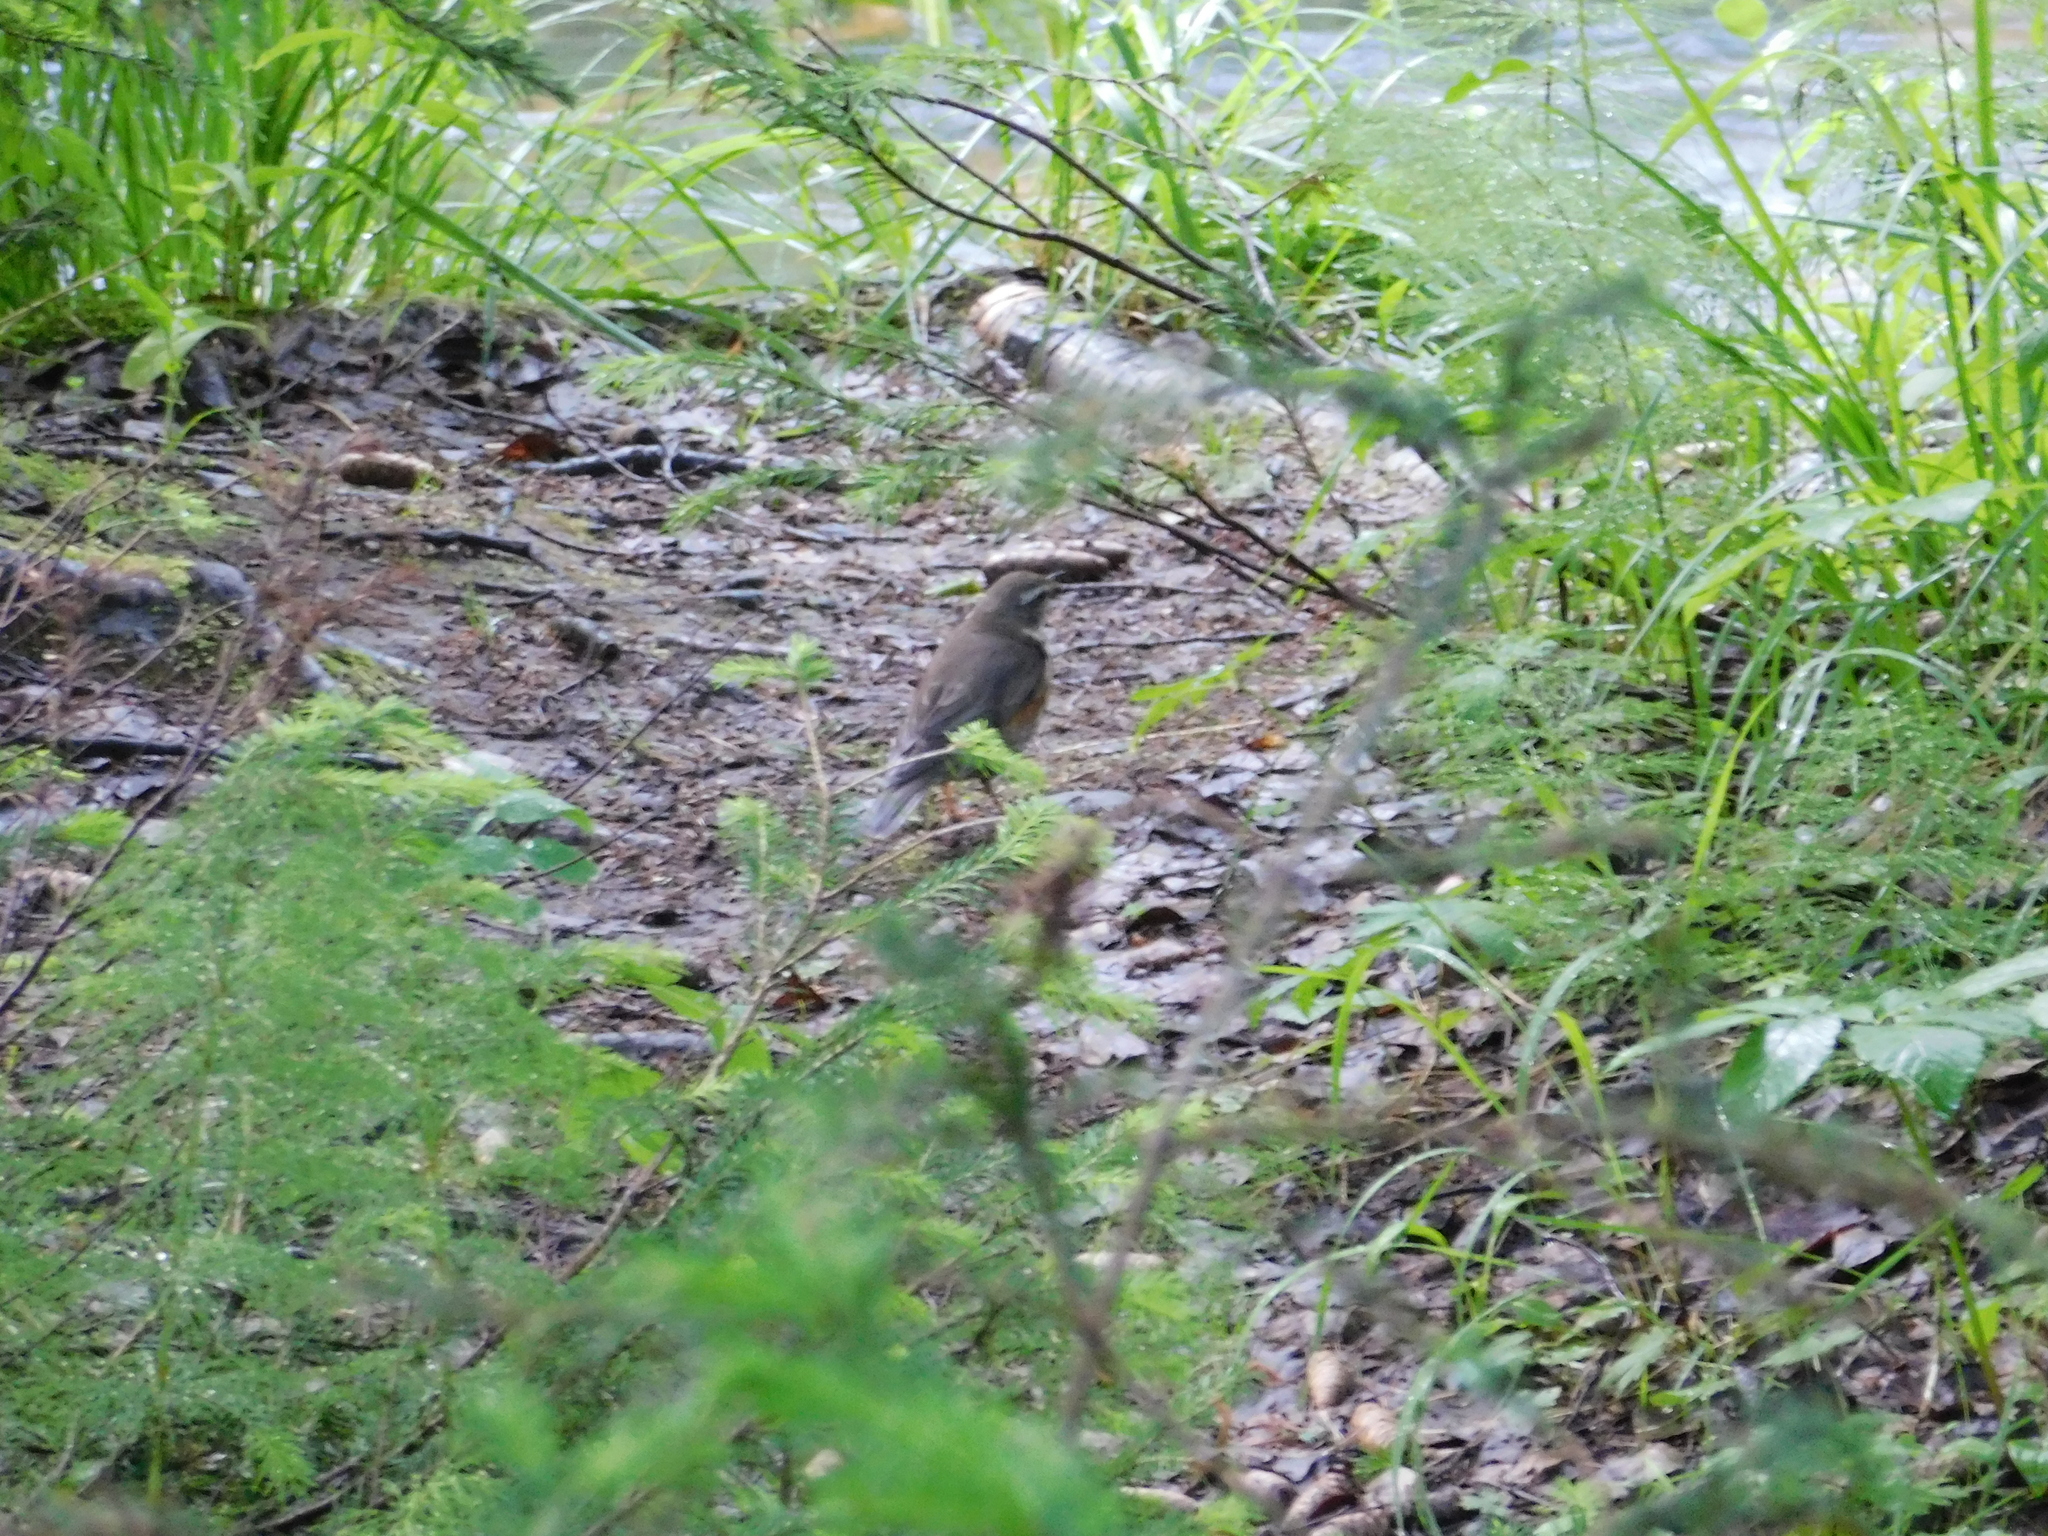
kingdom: Animalia
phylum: Chordata
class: Aves
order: Passeriformes
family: Turdidae
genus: Turdus
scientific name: Turdus iliacus
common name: Redwing
